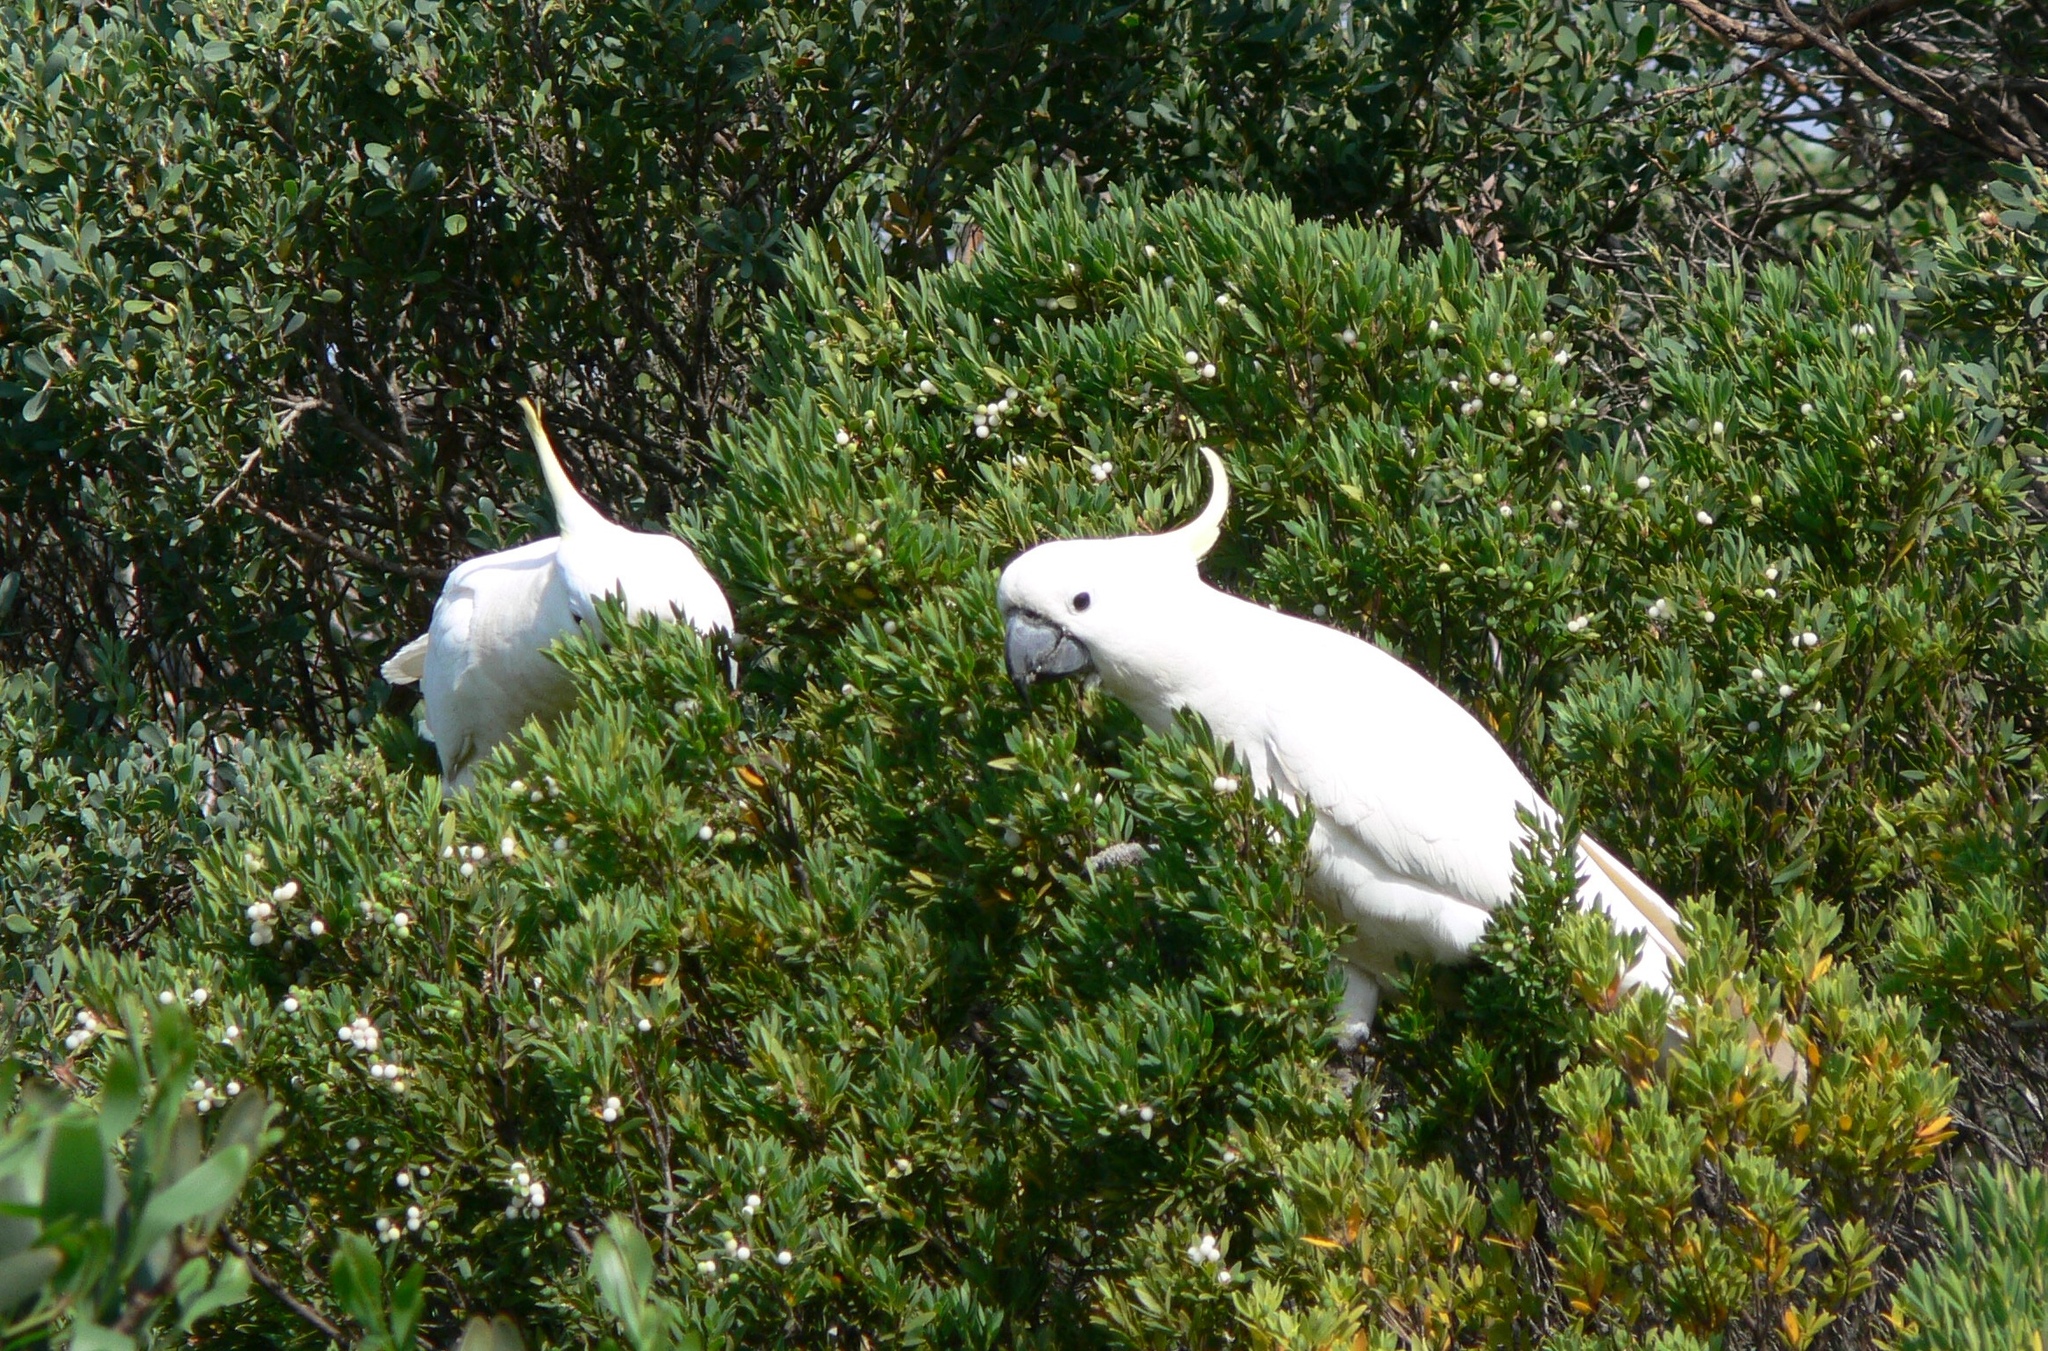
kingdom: Animalia
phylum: Chordata
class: Aves
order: Psittaciformes
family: Psittacidae
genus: Cacatua
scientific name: Cacatua galerita
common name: Sulphur-crested cockatoo
